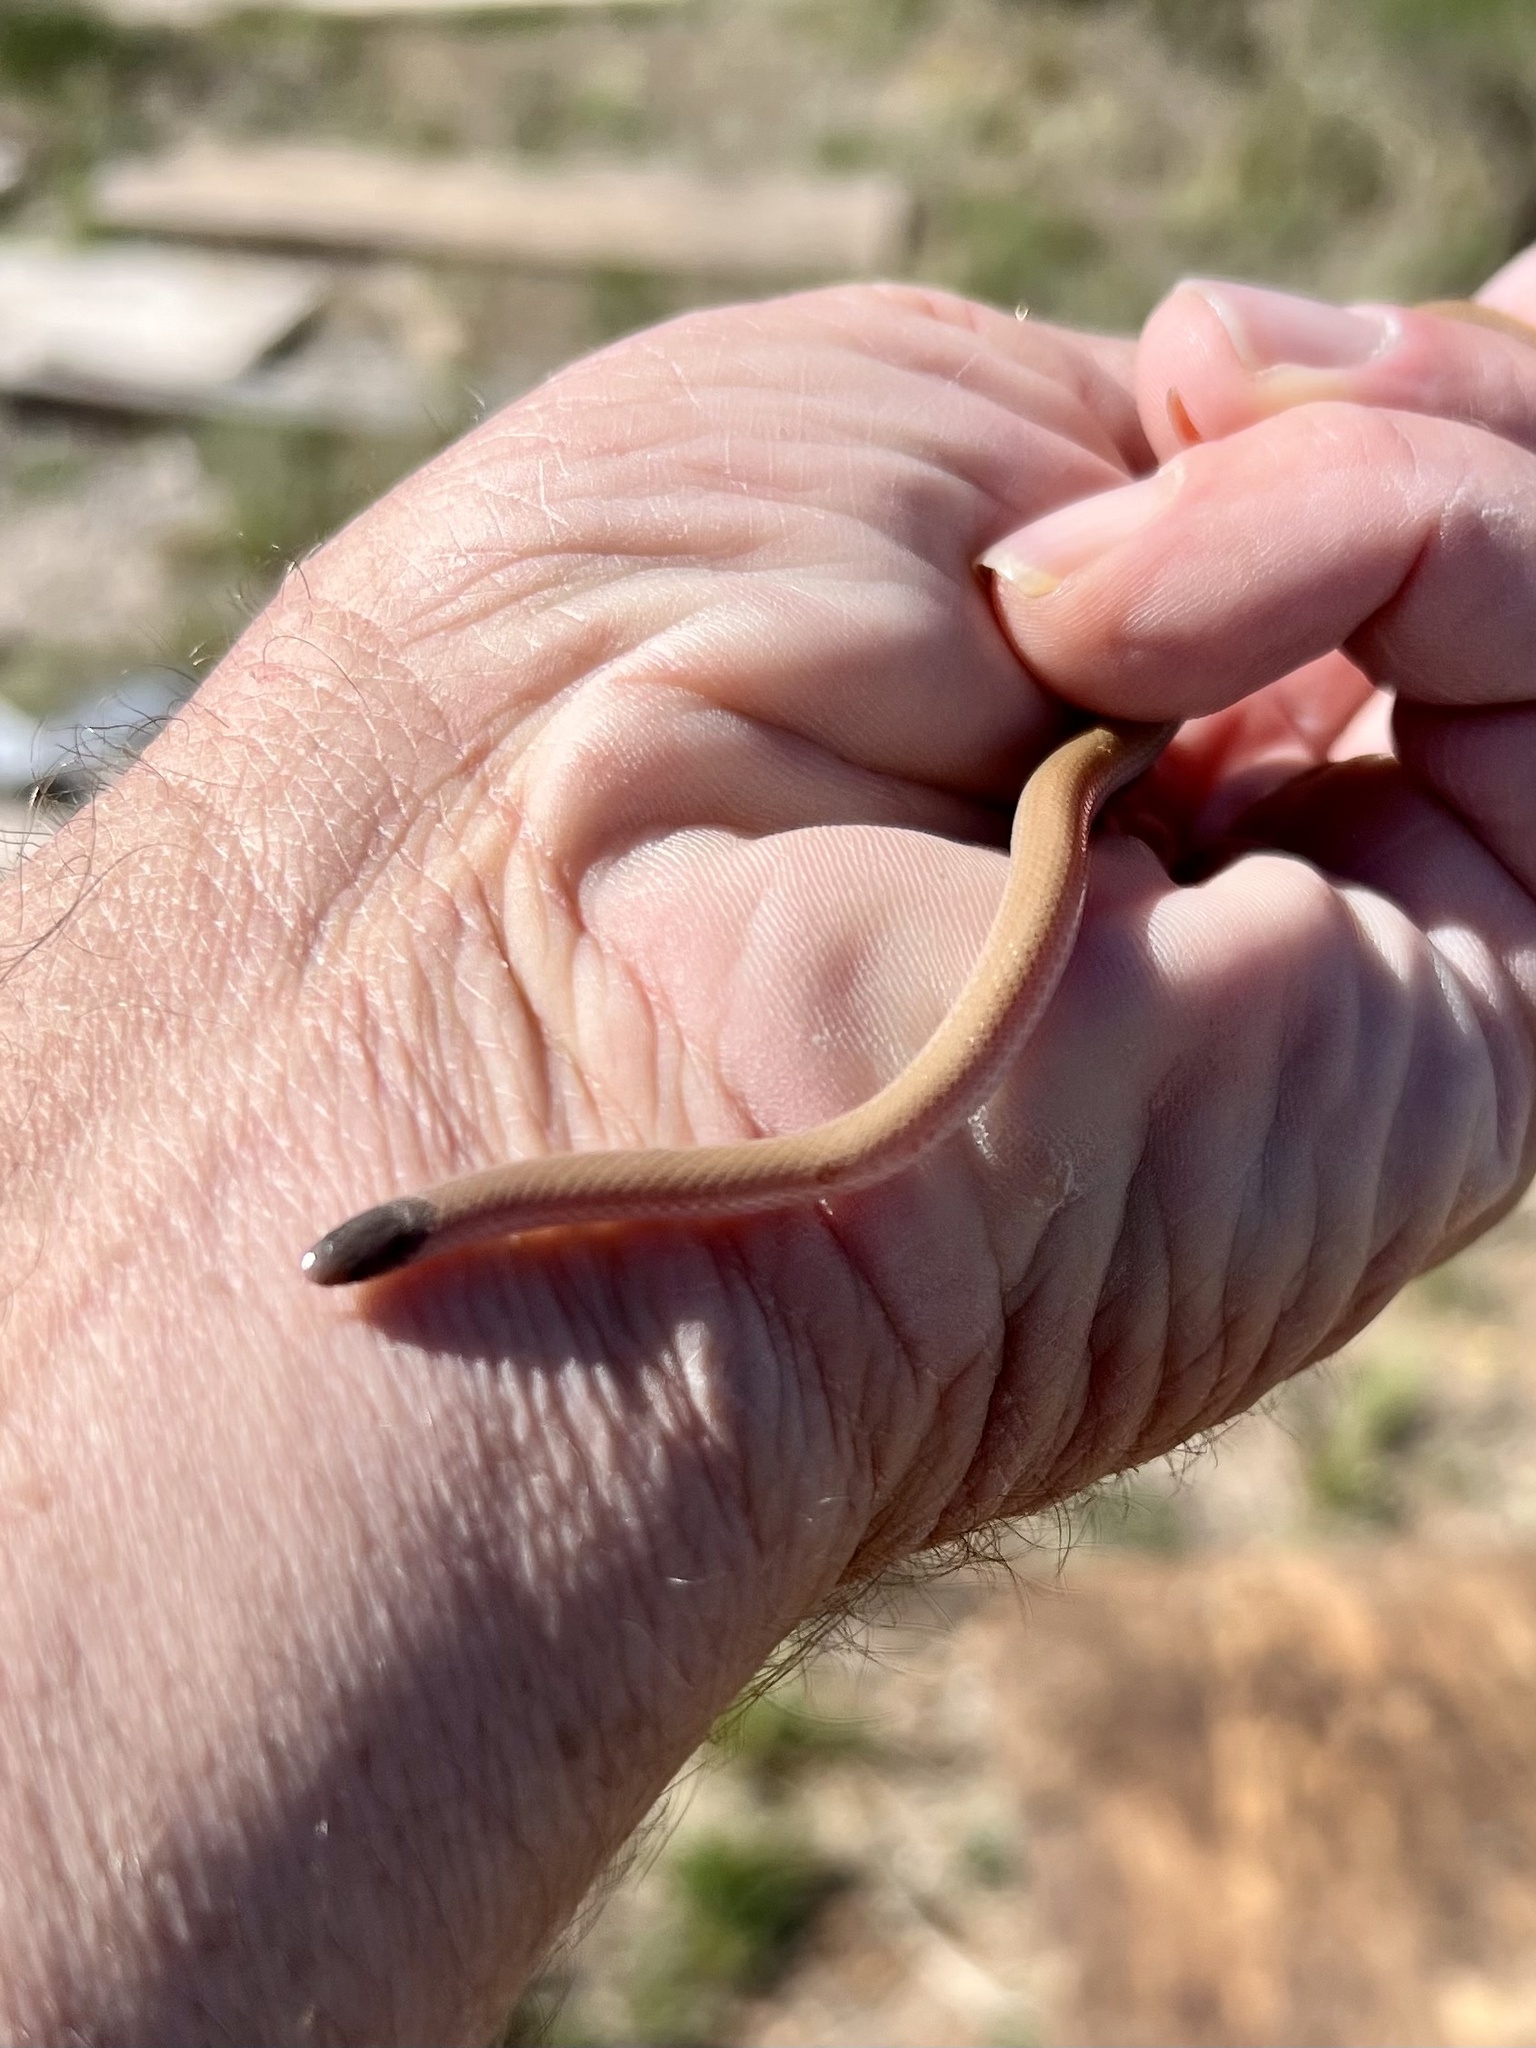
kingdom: Animalia
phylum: Chordata
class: Squamata
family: Colubridae
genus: Tantilla
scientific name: Tantilla hobartsmithi
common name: Southwestern blackhead snake
